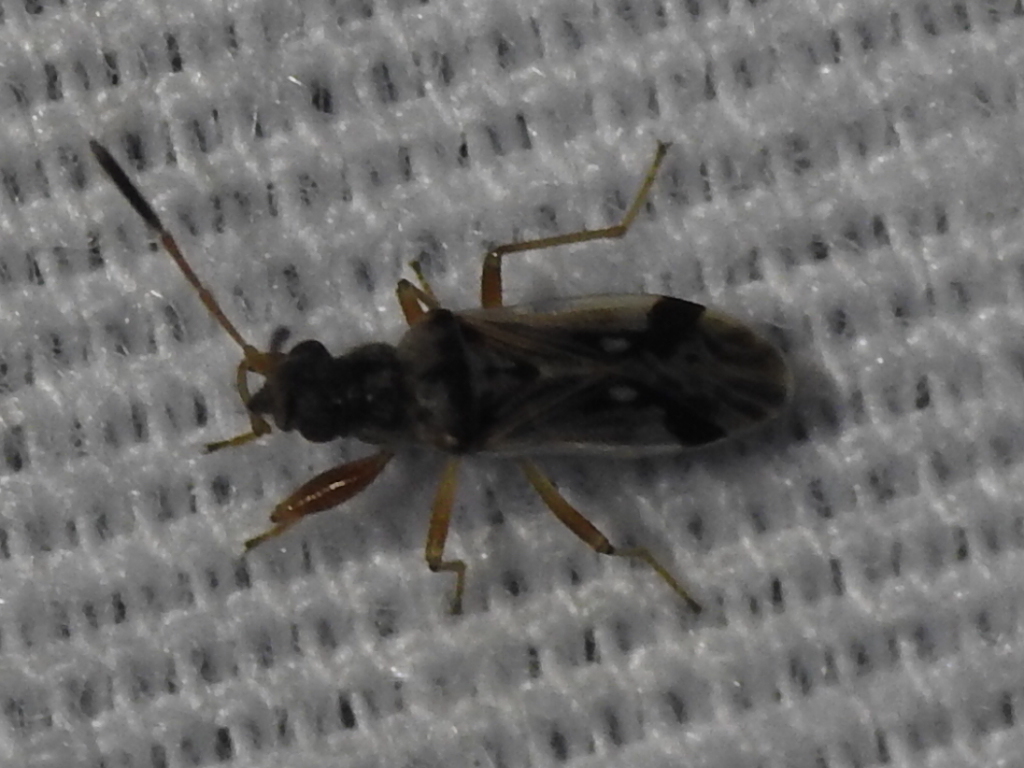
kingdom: Animalia
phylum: Arthropoda
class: Insecta
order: Hemiptera
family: Rhyparochromidae
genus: Pseudopachybrachius
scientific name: Pseudopachybrachius vinctus
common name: Dirt-colored seed bug
